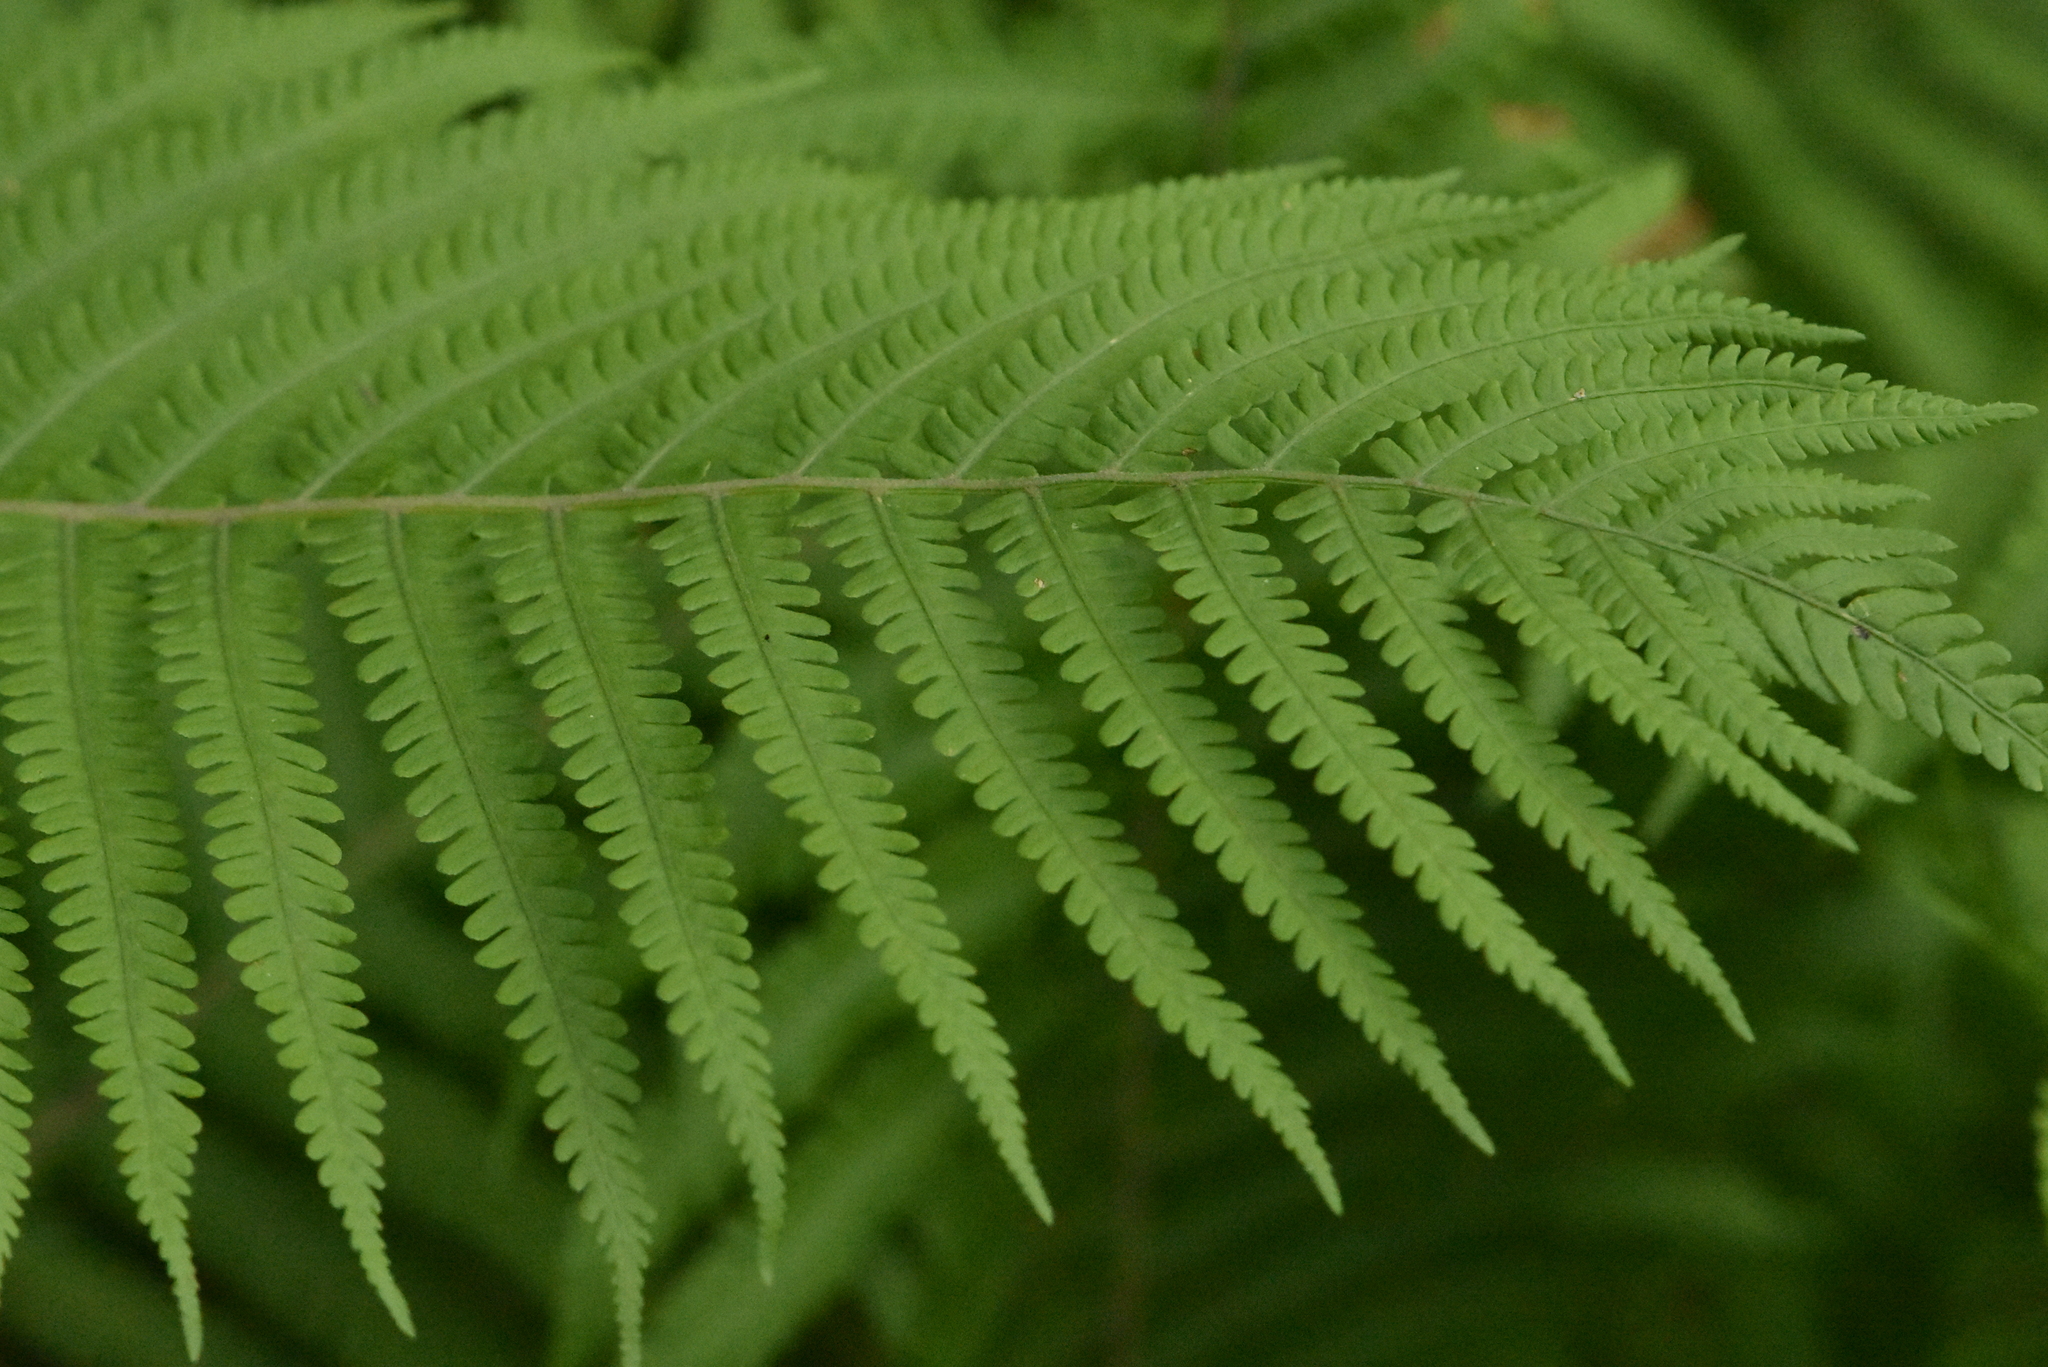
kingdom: Plantae
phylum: Tracheophyta
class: Polypodiopsida
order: Polypodiales
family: Onocleaceae
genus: Matteuccia
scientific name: Matteuccia struthiopteris
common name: Ostrich fern
